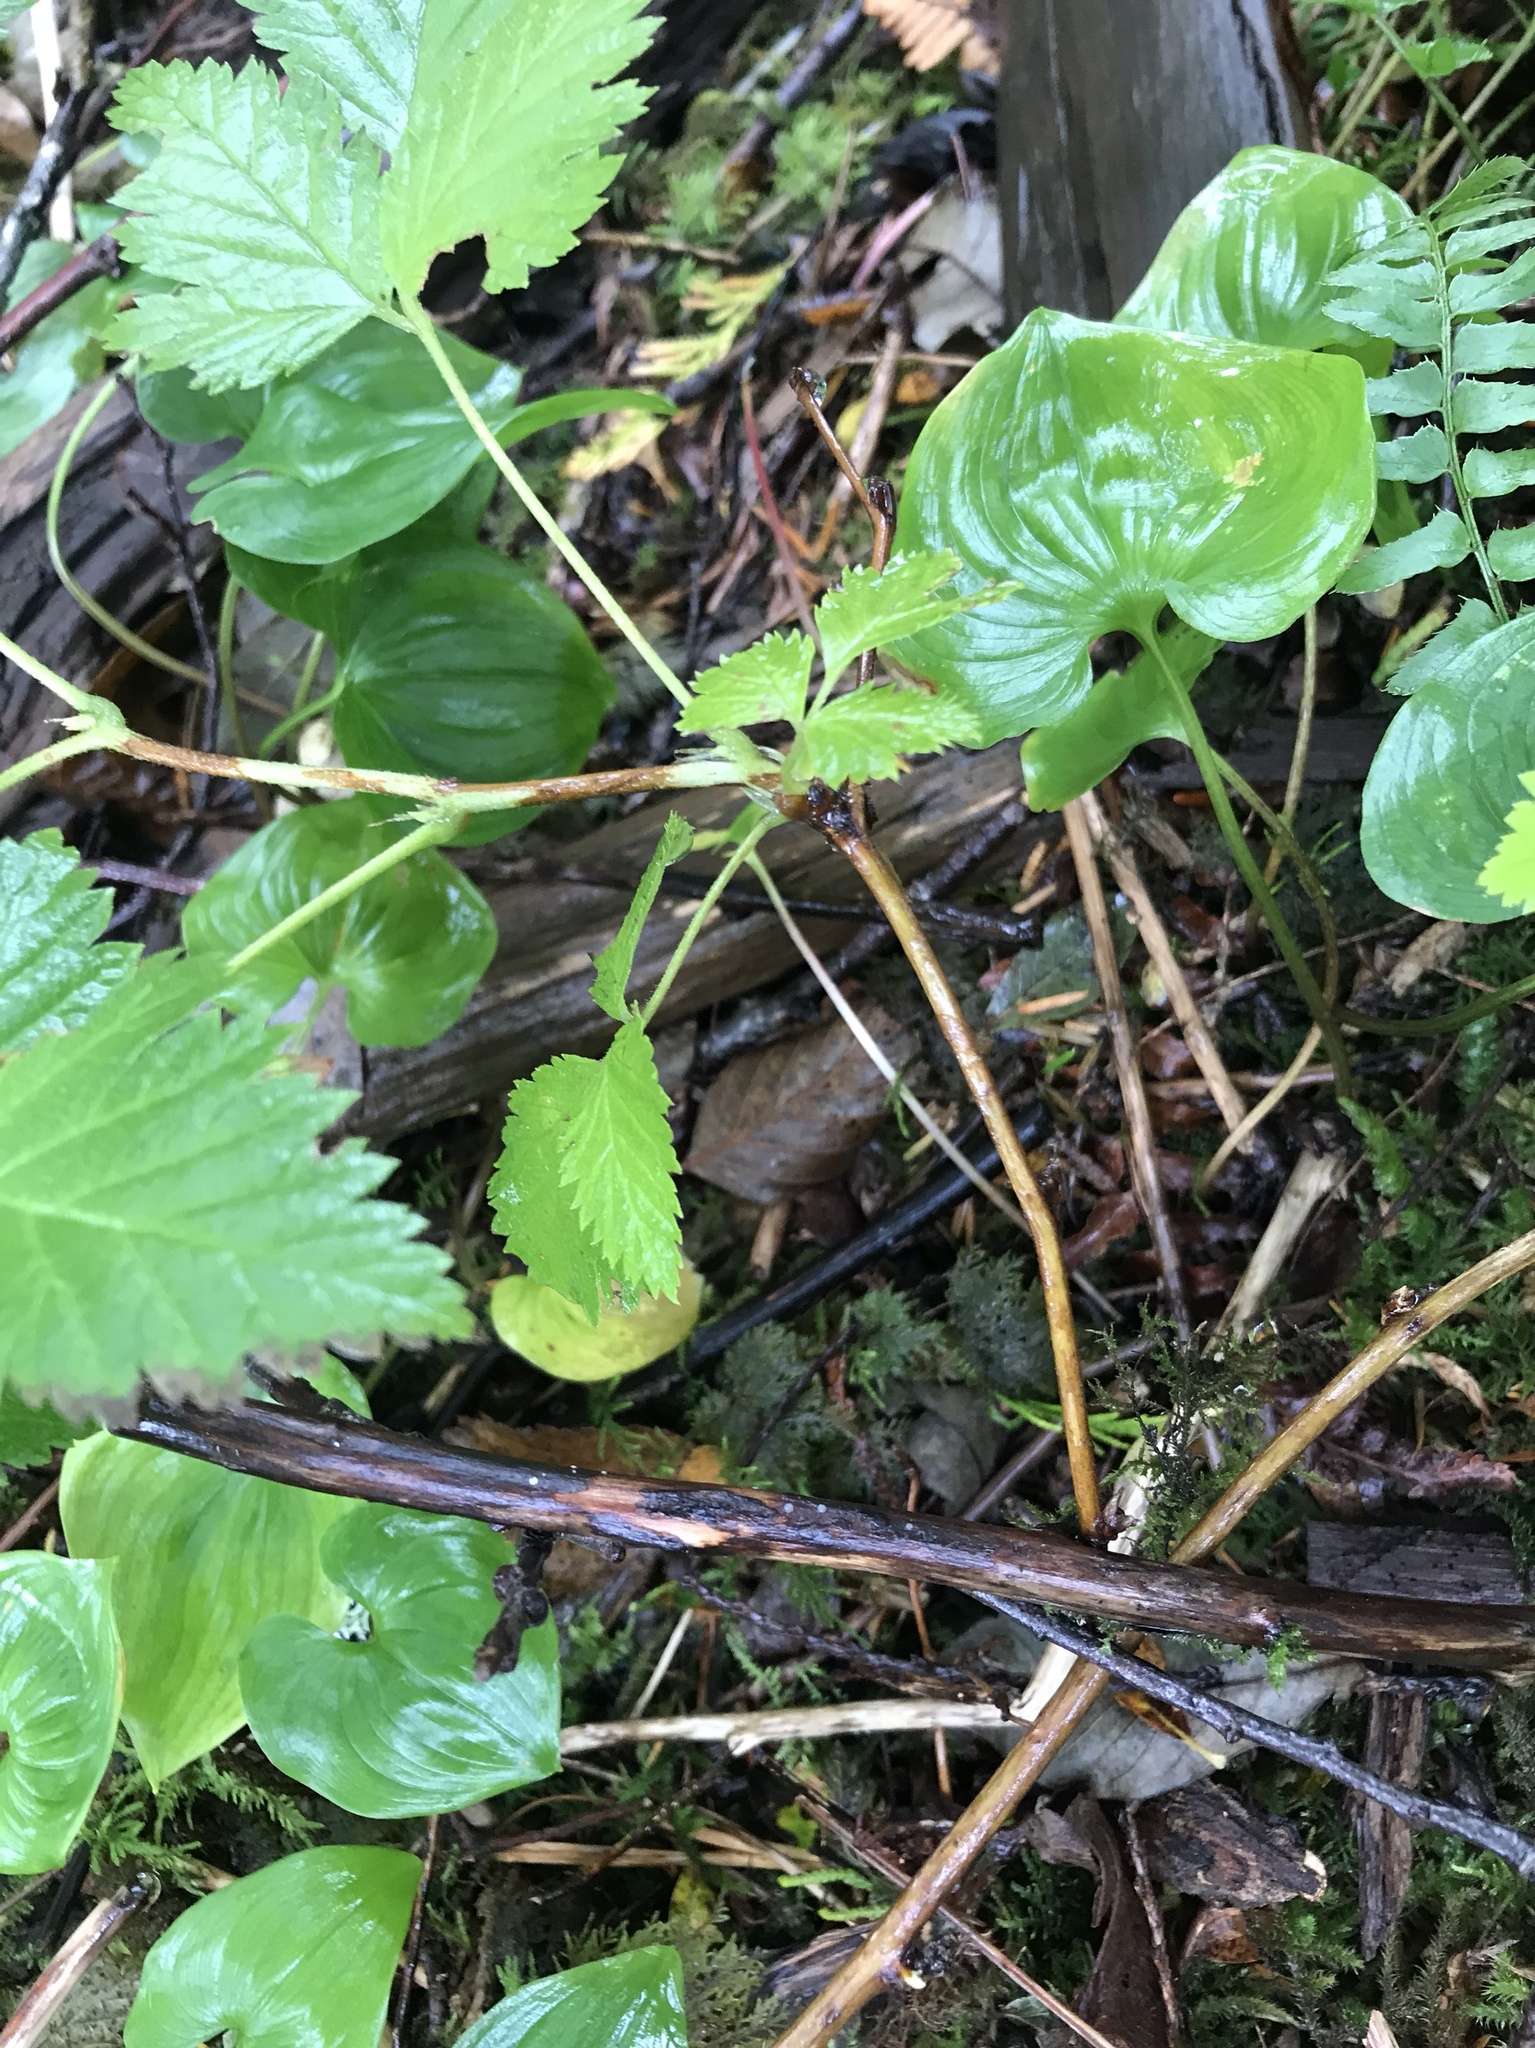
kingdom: Plantae
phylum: Tracheophyta
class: Magnoliopsida
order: Rosales
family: Rosaceae
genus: Rubus
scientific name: Rubus spectabilis
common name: Salmonberry
